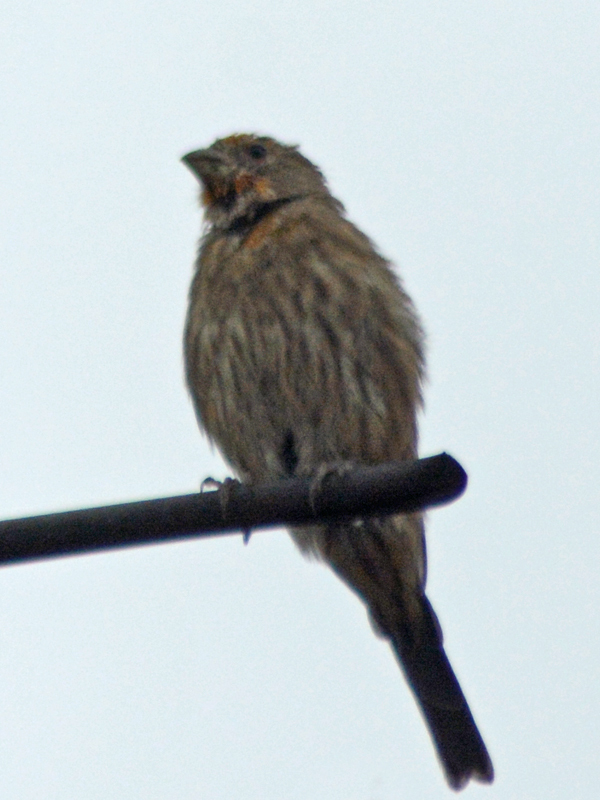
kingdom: Animalia
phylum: Chordata
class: Aves
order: Passeriformes
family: Fringillidae
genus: Haemorhous
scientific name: Haemorhous mexicanus
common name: House finch
